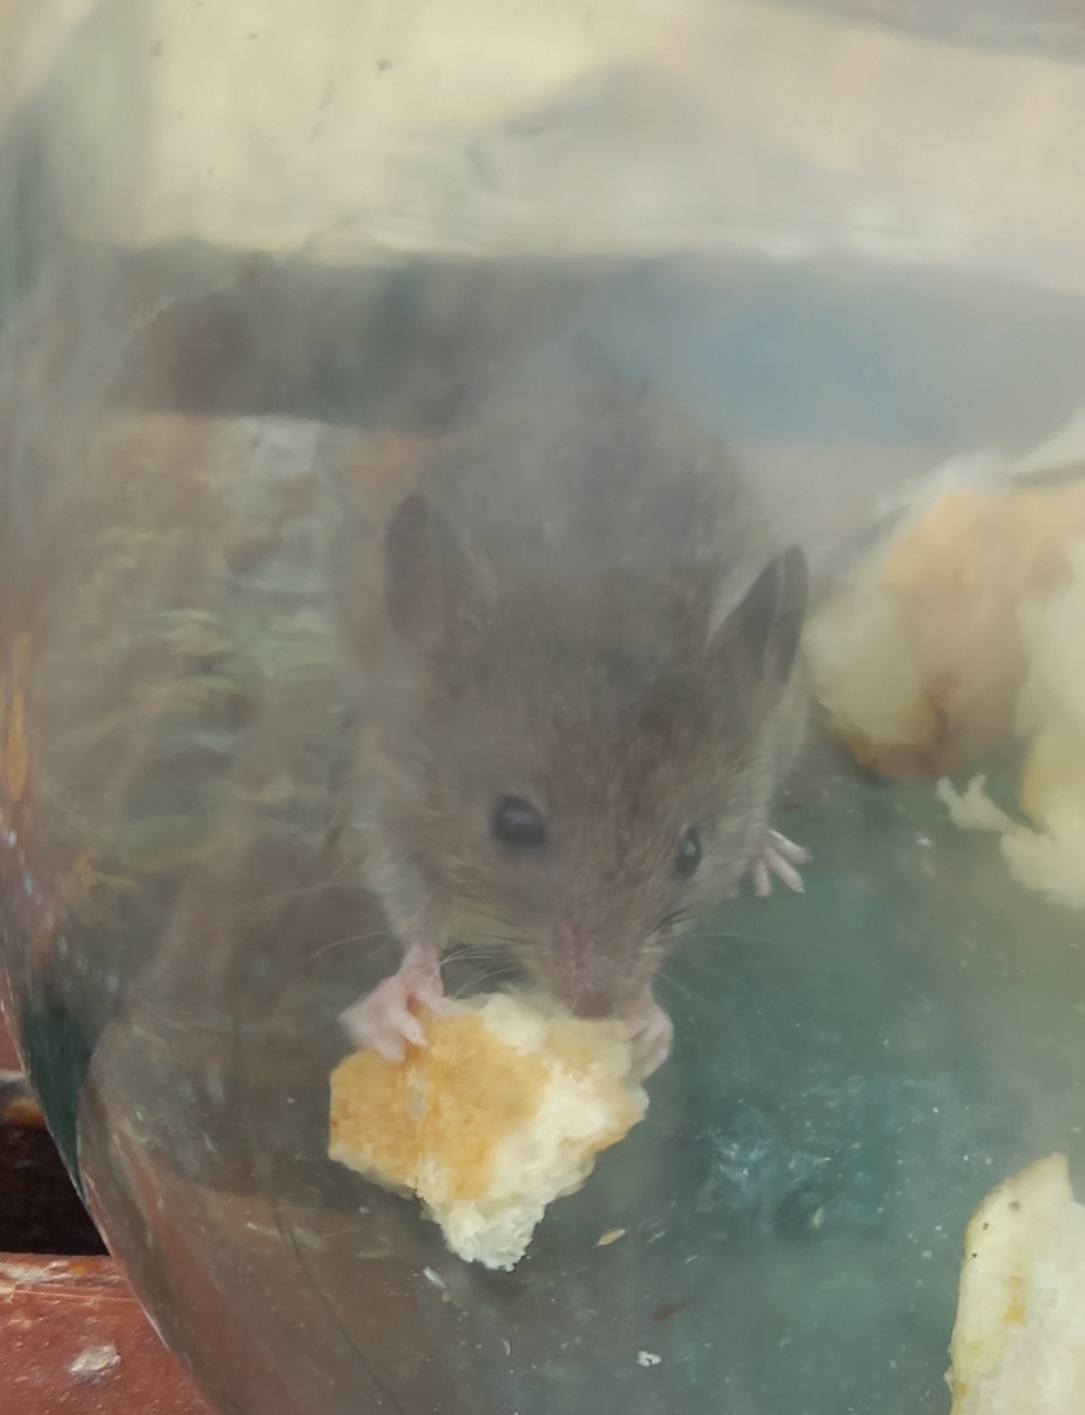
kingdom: Animalia
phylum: Chordata
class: Mammalia
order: Rodentia
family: Muridae
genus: Mus
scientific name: Mus musculus
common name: House mouse
